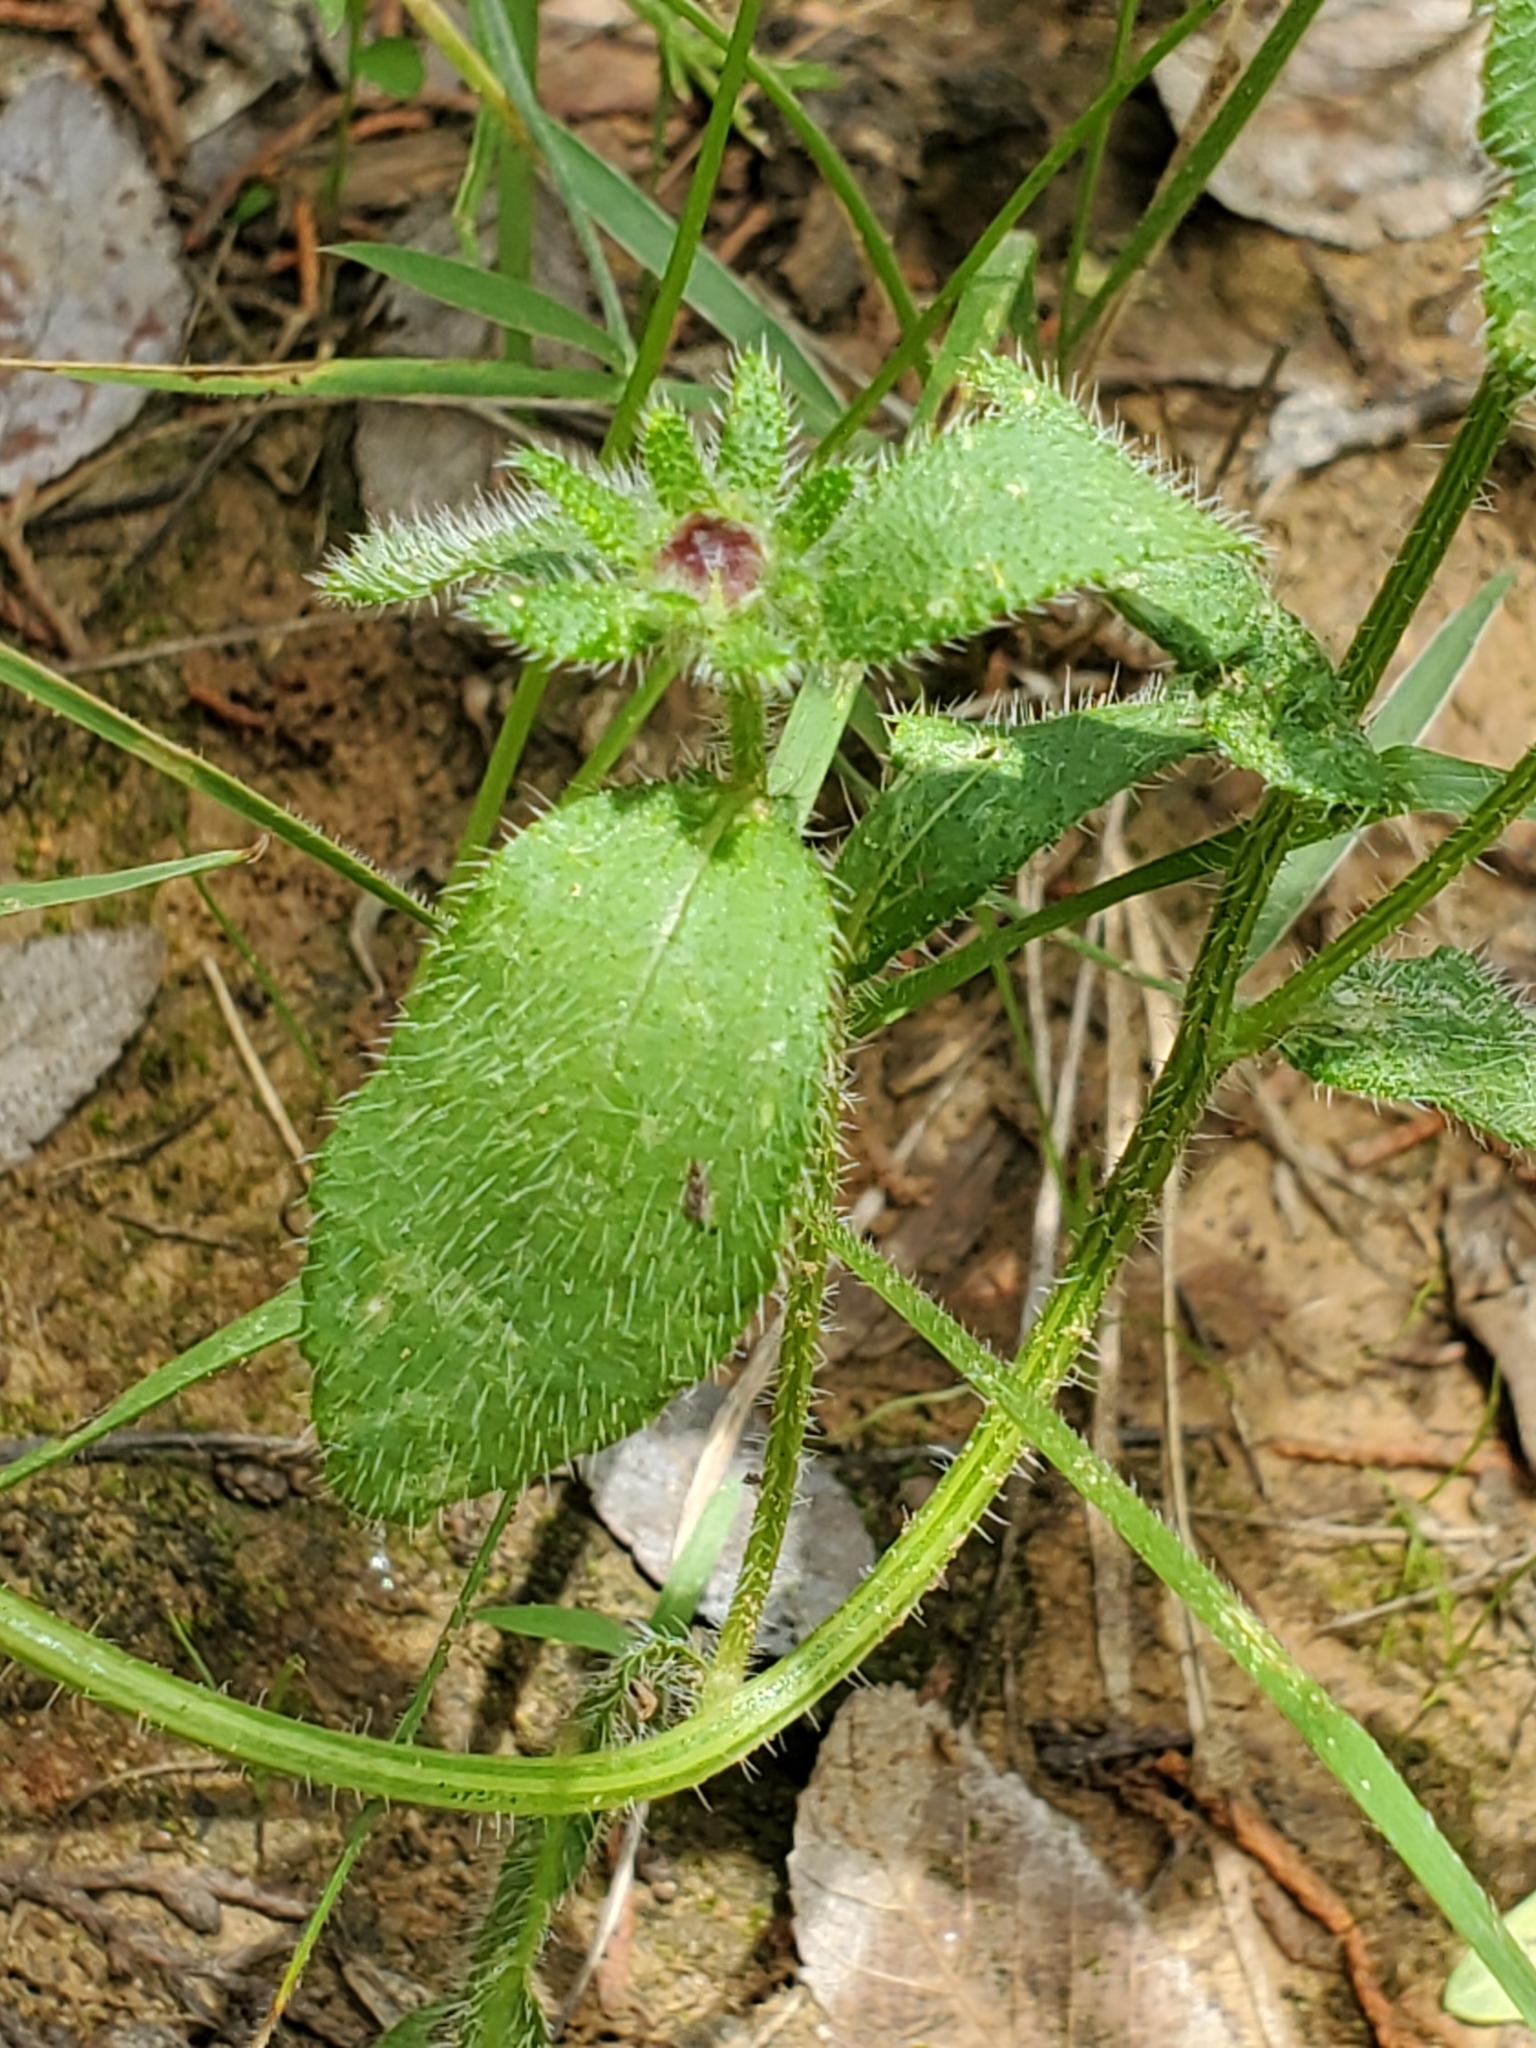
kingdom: Plantae
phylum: Tracheophyta
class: Magnoliopsida
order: Asterales
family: Asteraceae
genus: Rudbeckia
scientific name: Rudbeckia hirta
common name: Black-eyed-susan
